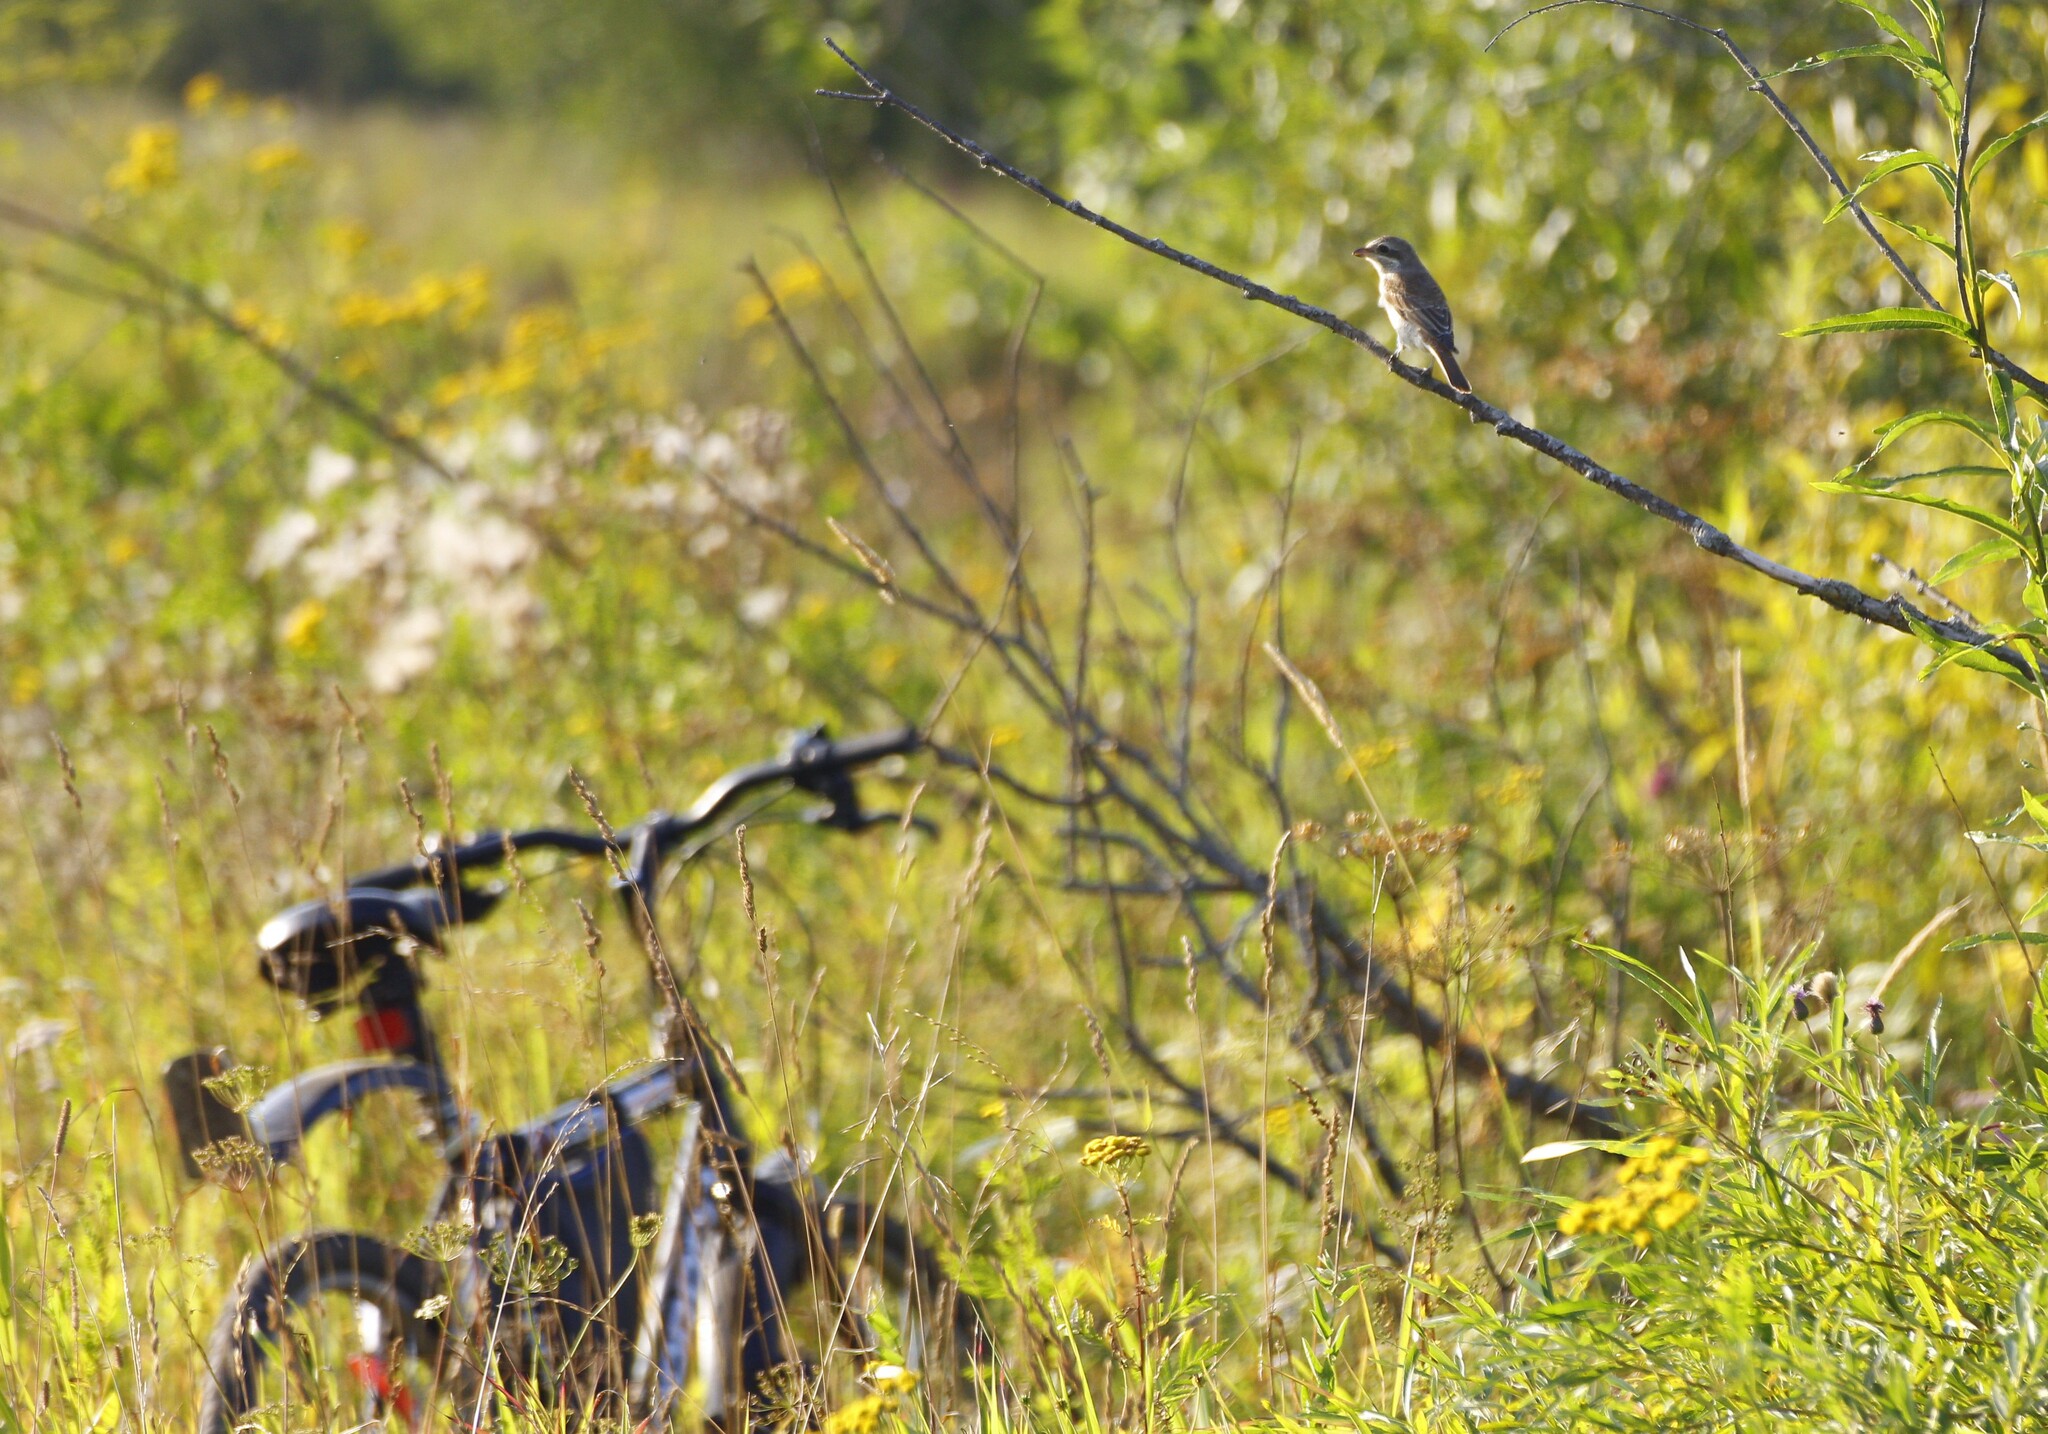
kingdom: Animalia
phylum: Chordata
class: Aves
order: Passeriformes
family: Laniidae
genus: Lanius
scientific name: Lanius collurio
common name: Red-backed shrike
